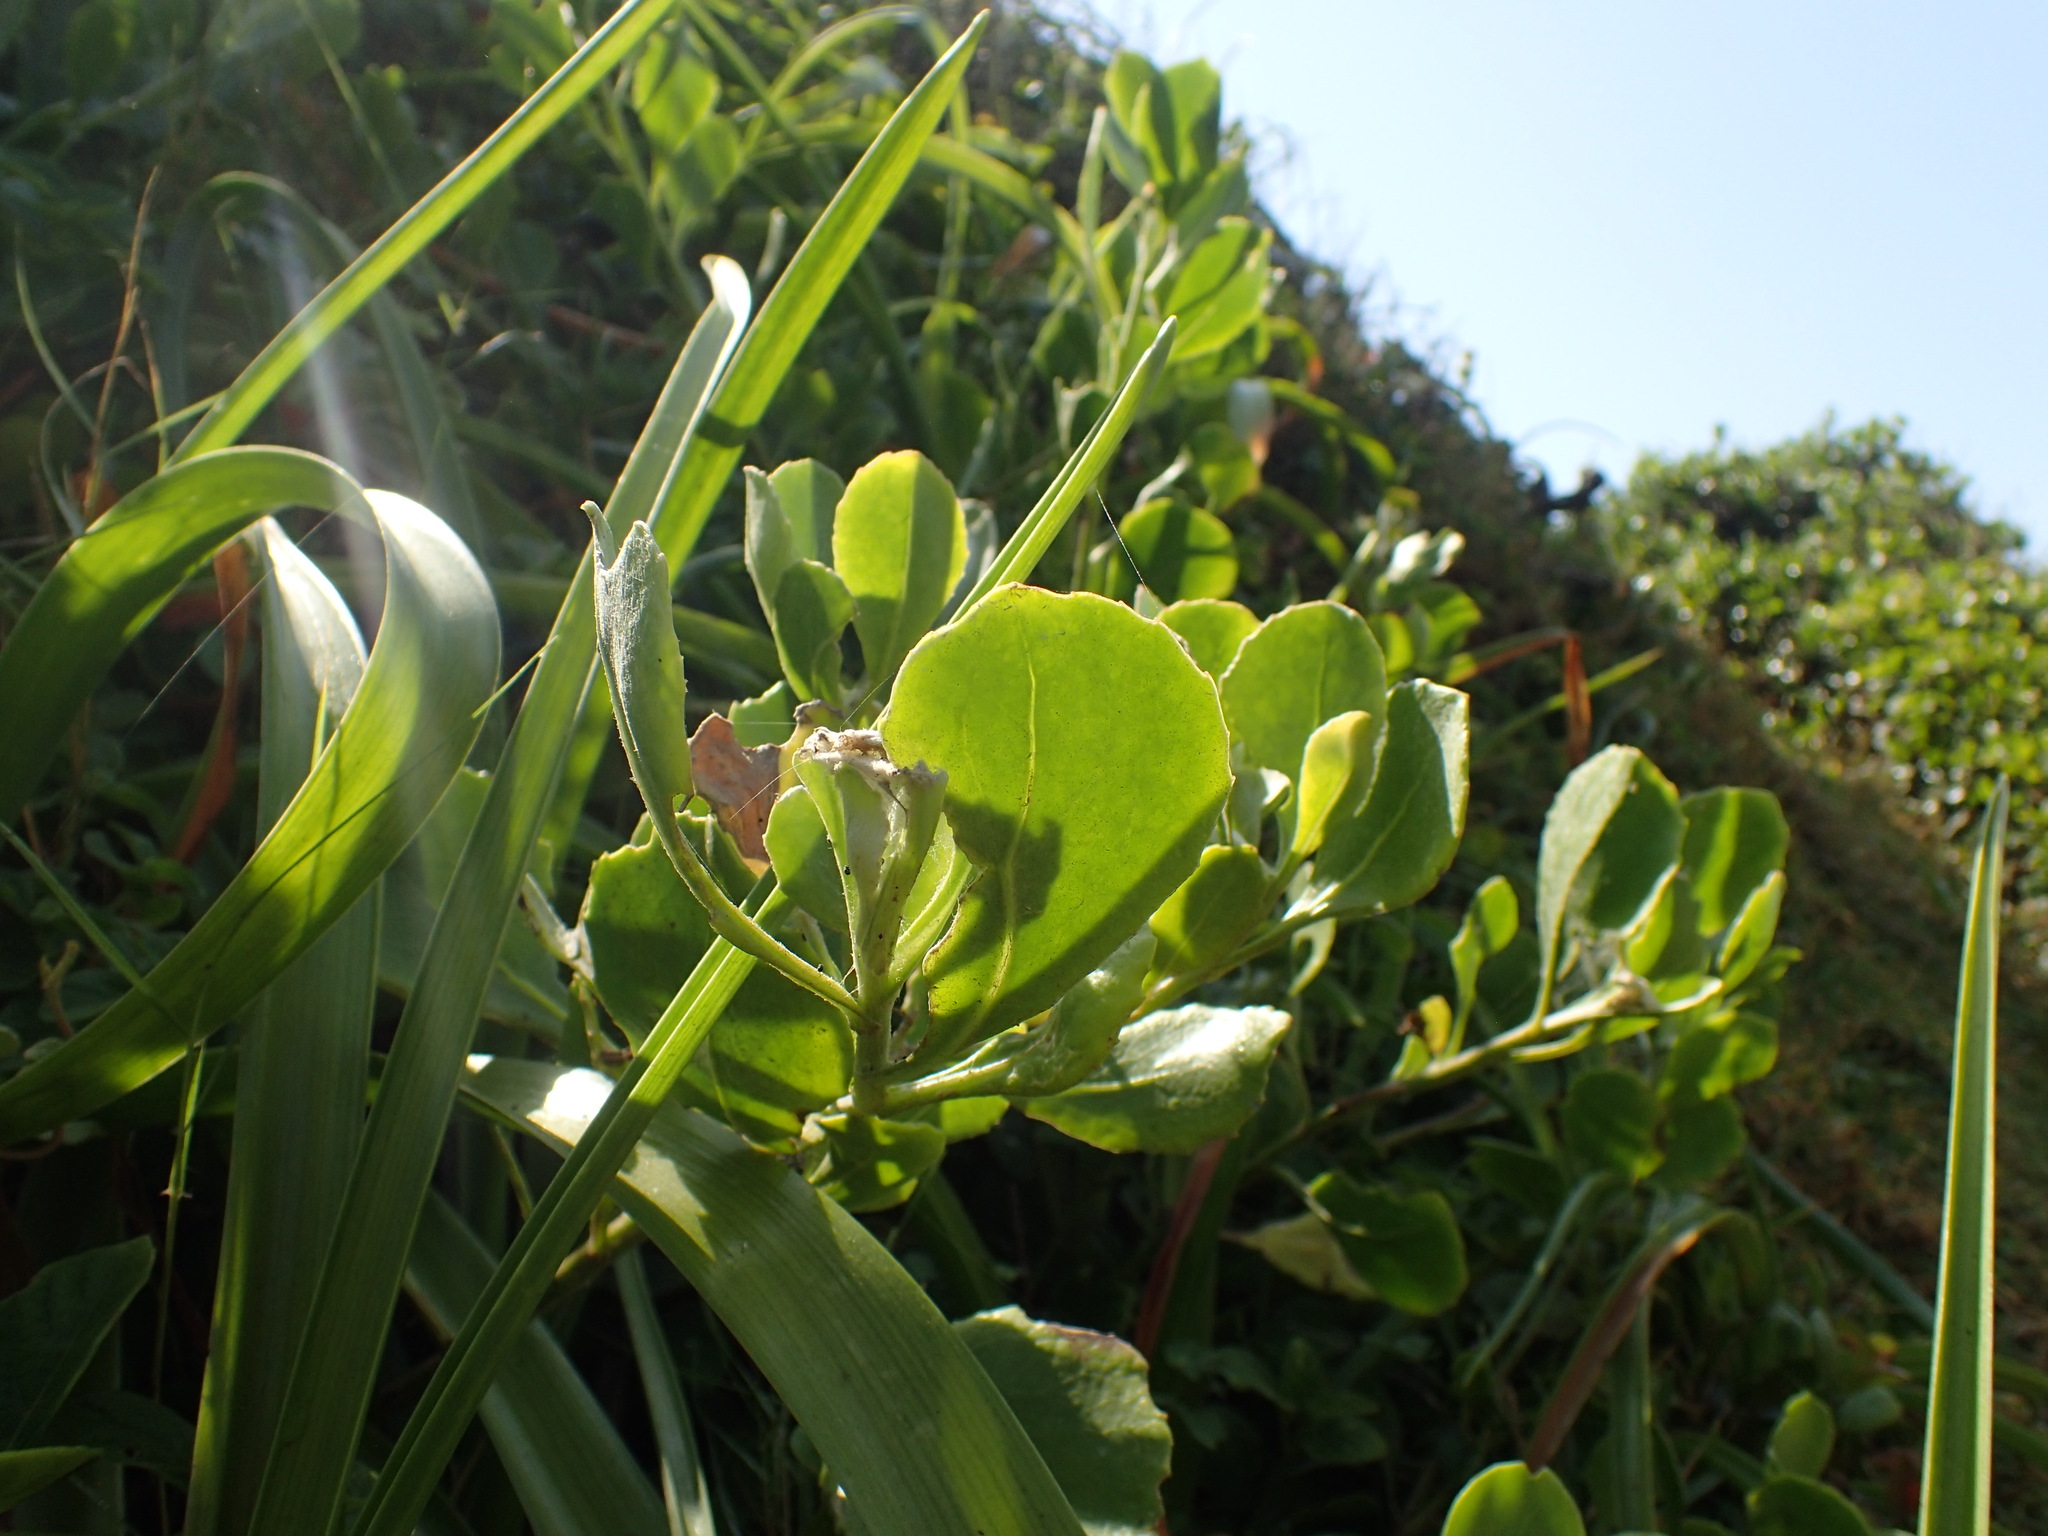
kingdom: Plantae
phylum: Tracheophyta
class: Magnoliopsida
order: Asterales
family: Asteraceae
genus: Osteospermum
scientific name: Osteospermum moniliferum
